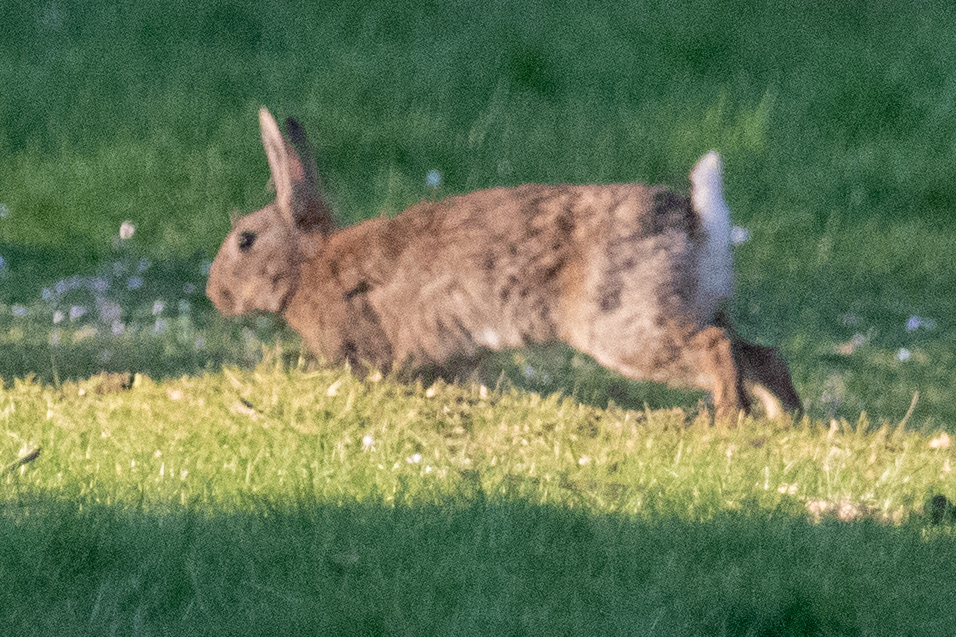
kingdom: Animalia
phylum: Chordata
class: Mammalia
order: Lagomorpha
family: Leporidae
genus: Oryctolagus
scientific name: Oryctolagus cuniculus
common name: European rabbit
